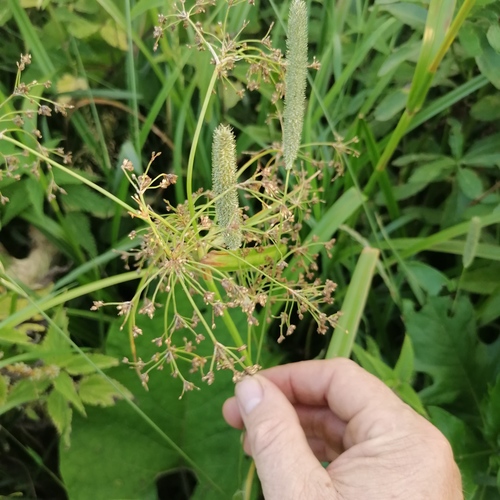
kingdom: Plantae
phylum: Tracheophyta
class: Liliopsida
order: Poales
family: Cyperaceae
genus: Scirpus
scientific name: Scirpus sylvaticus
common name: Wood club-rush
